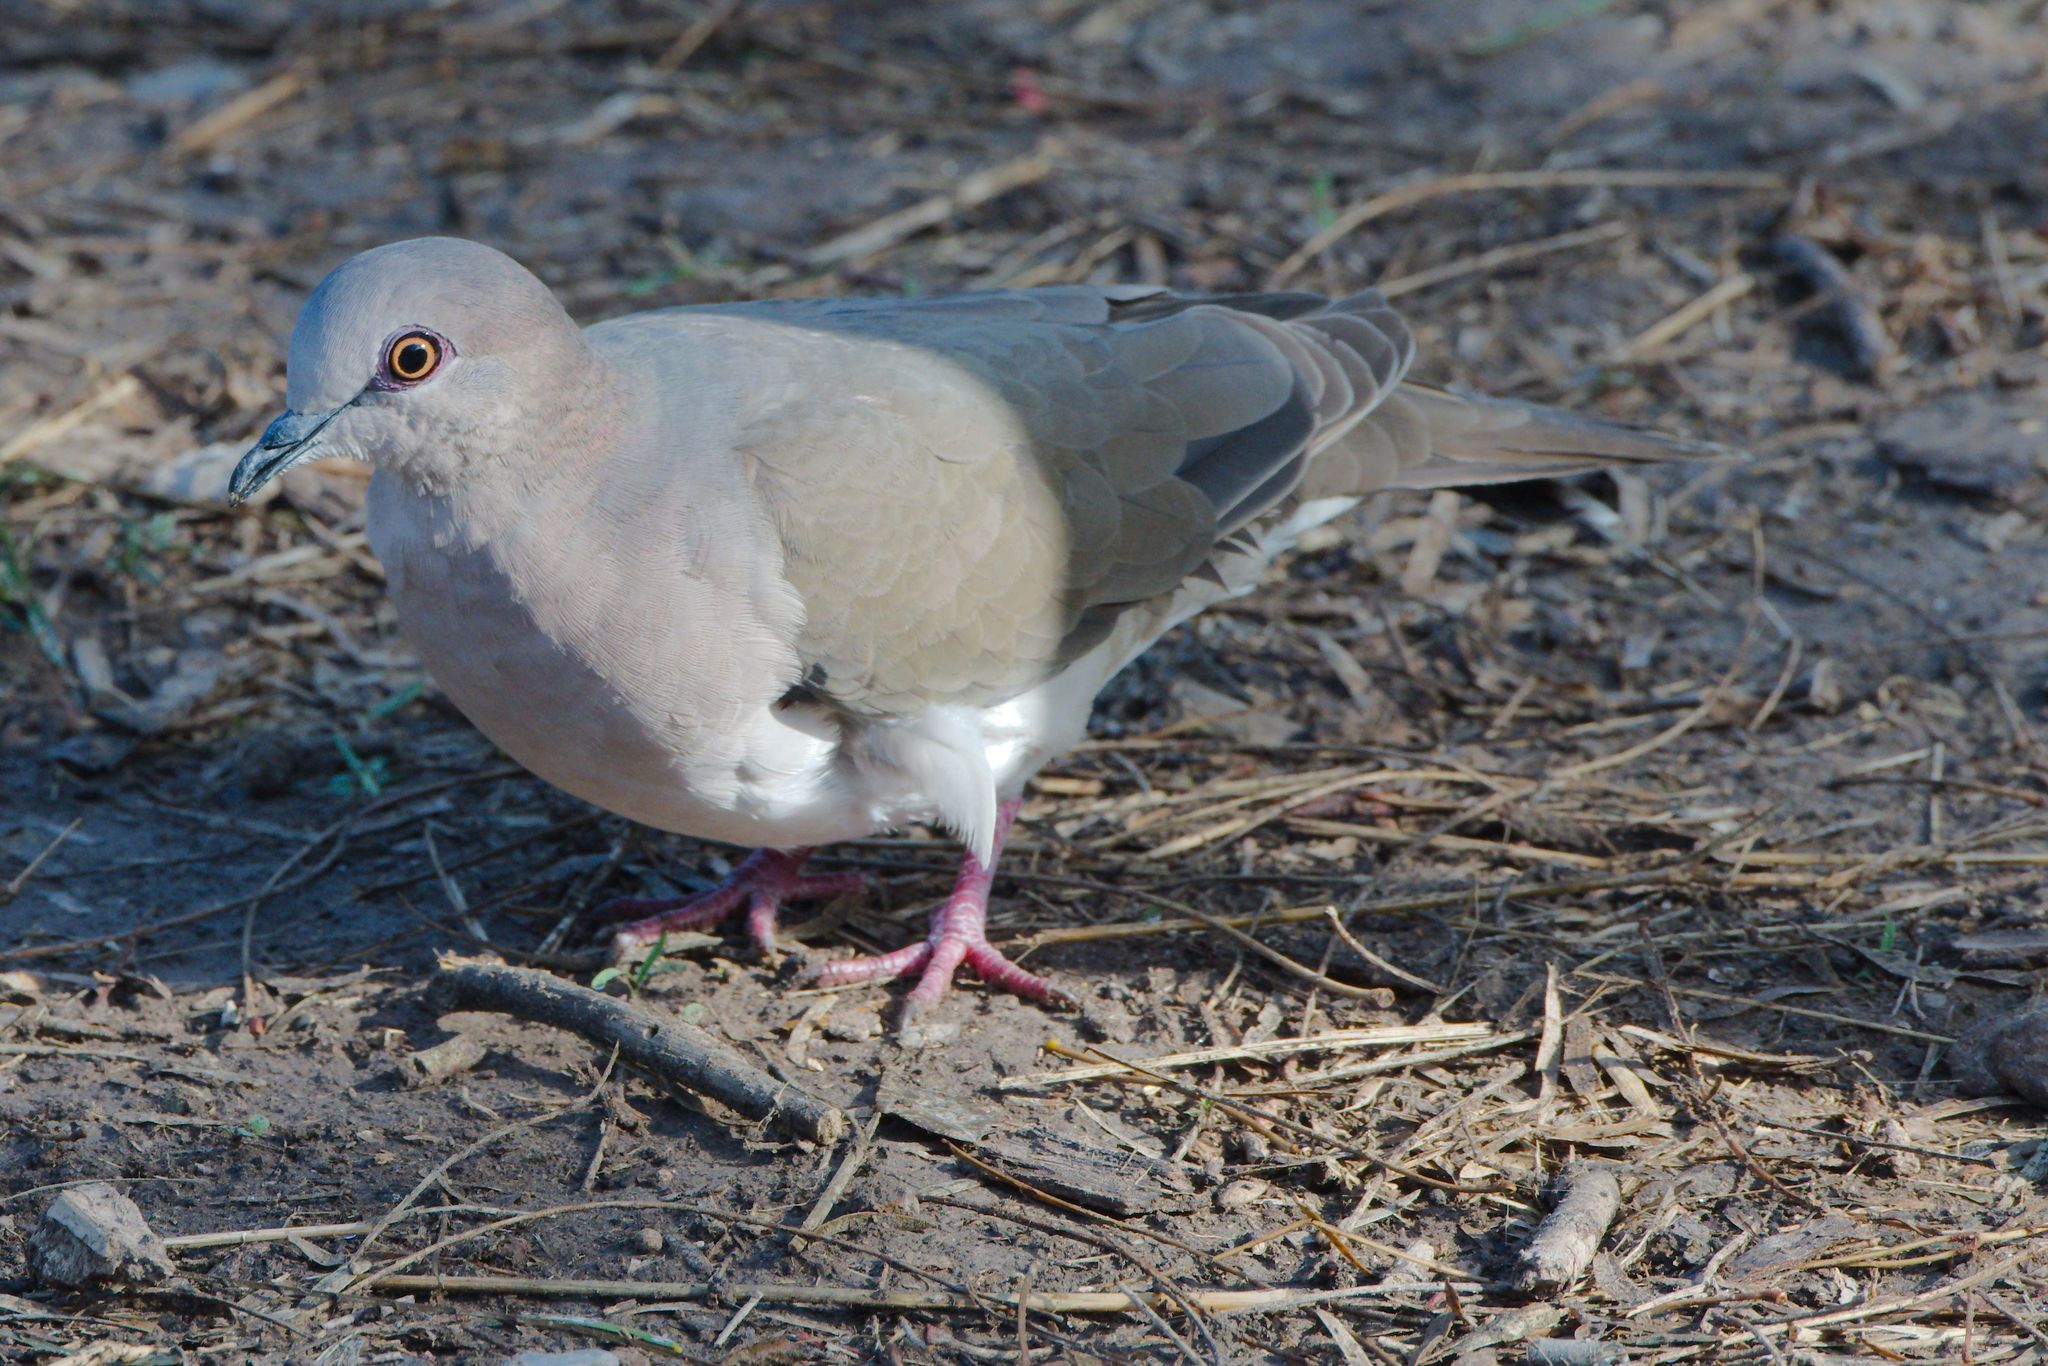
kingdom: Animalia
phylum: Chordata
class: Aves
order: Columbiformes
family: Columbidae
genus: Leptotila
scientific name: Leptotila verreauxi
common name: White-tipped dove
